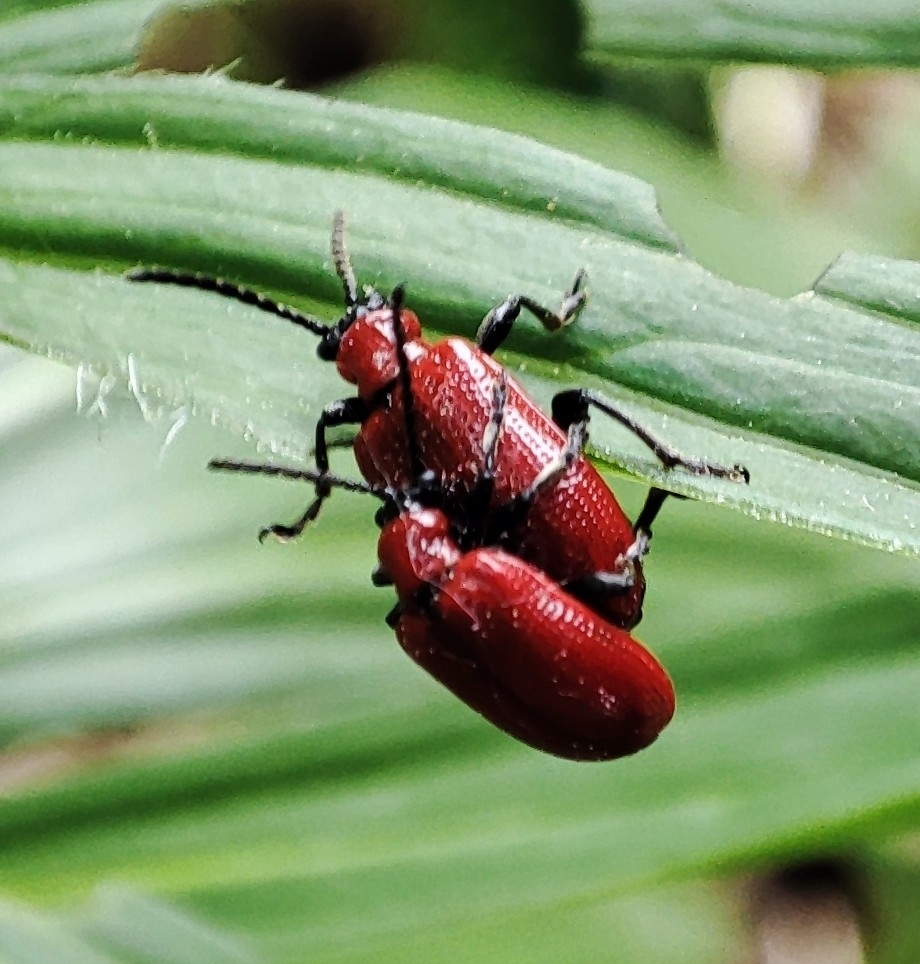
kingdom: Animalia
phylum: Arthropoda
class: Insecta
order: Coleoptera
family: Chrysomelidae
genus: Lilioceris
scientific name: Lilioceris lilii
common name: Lily beetle
